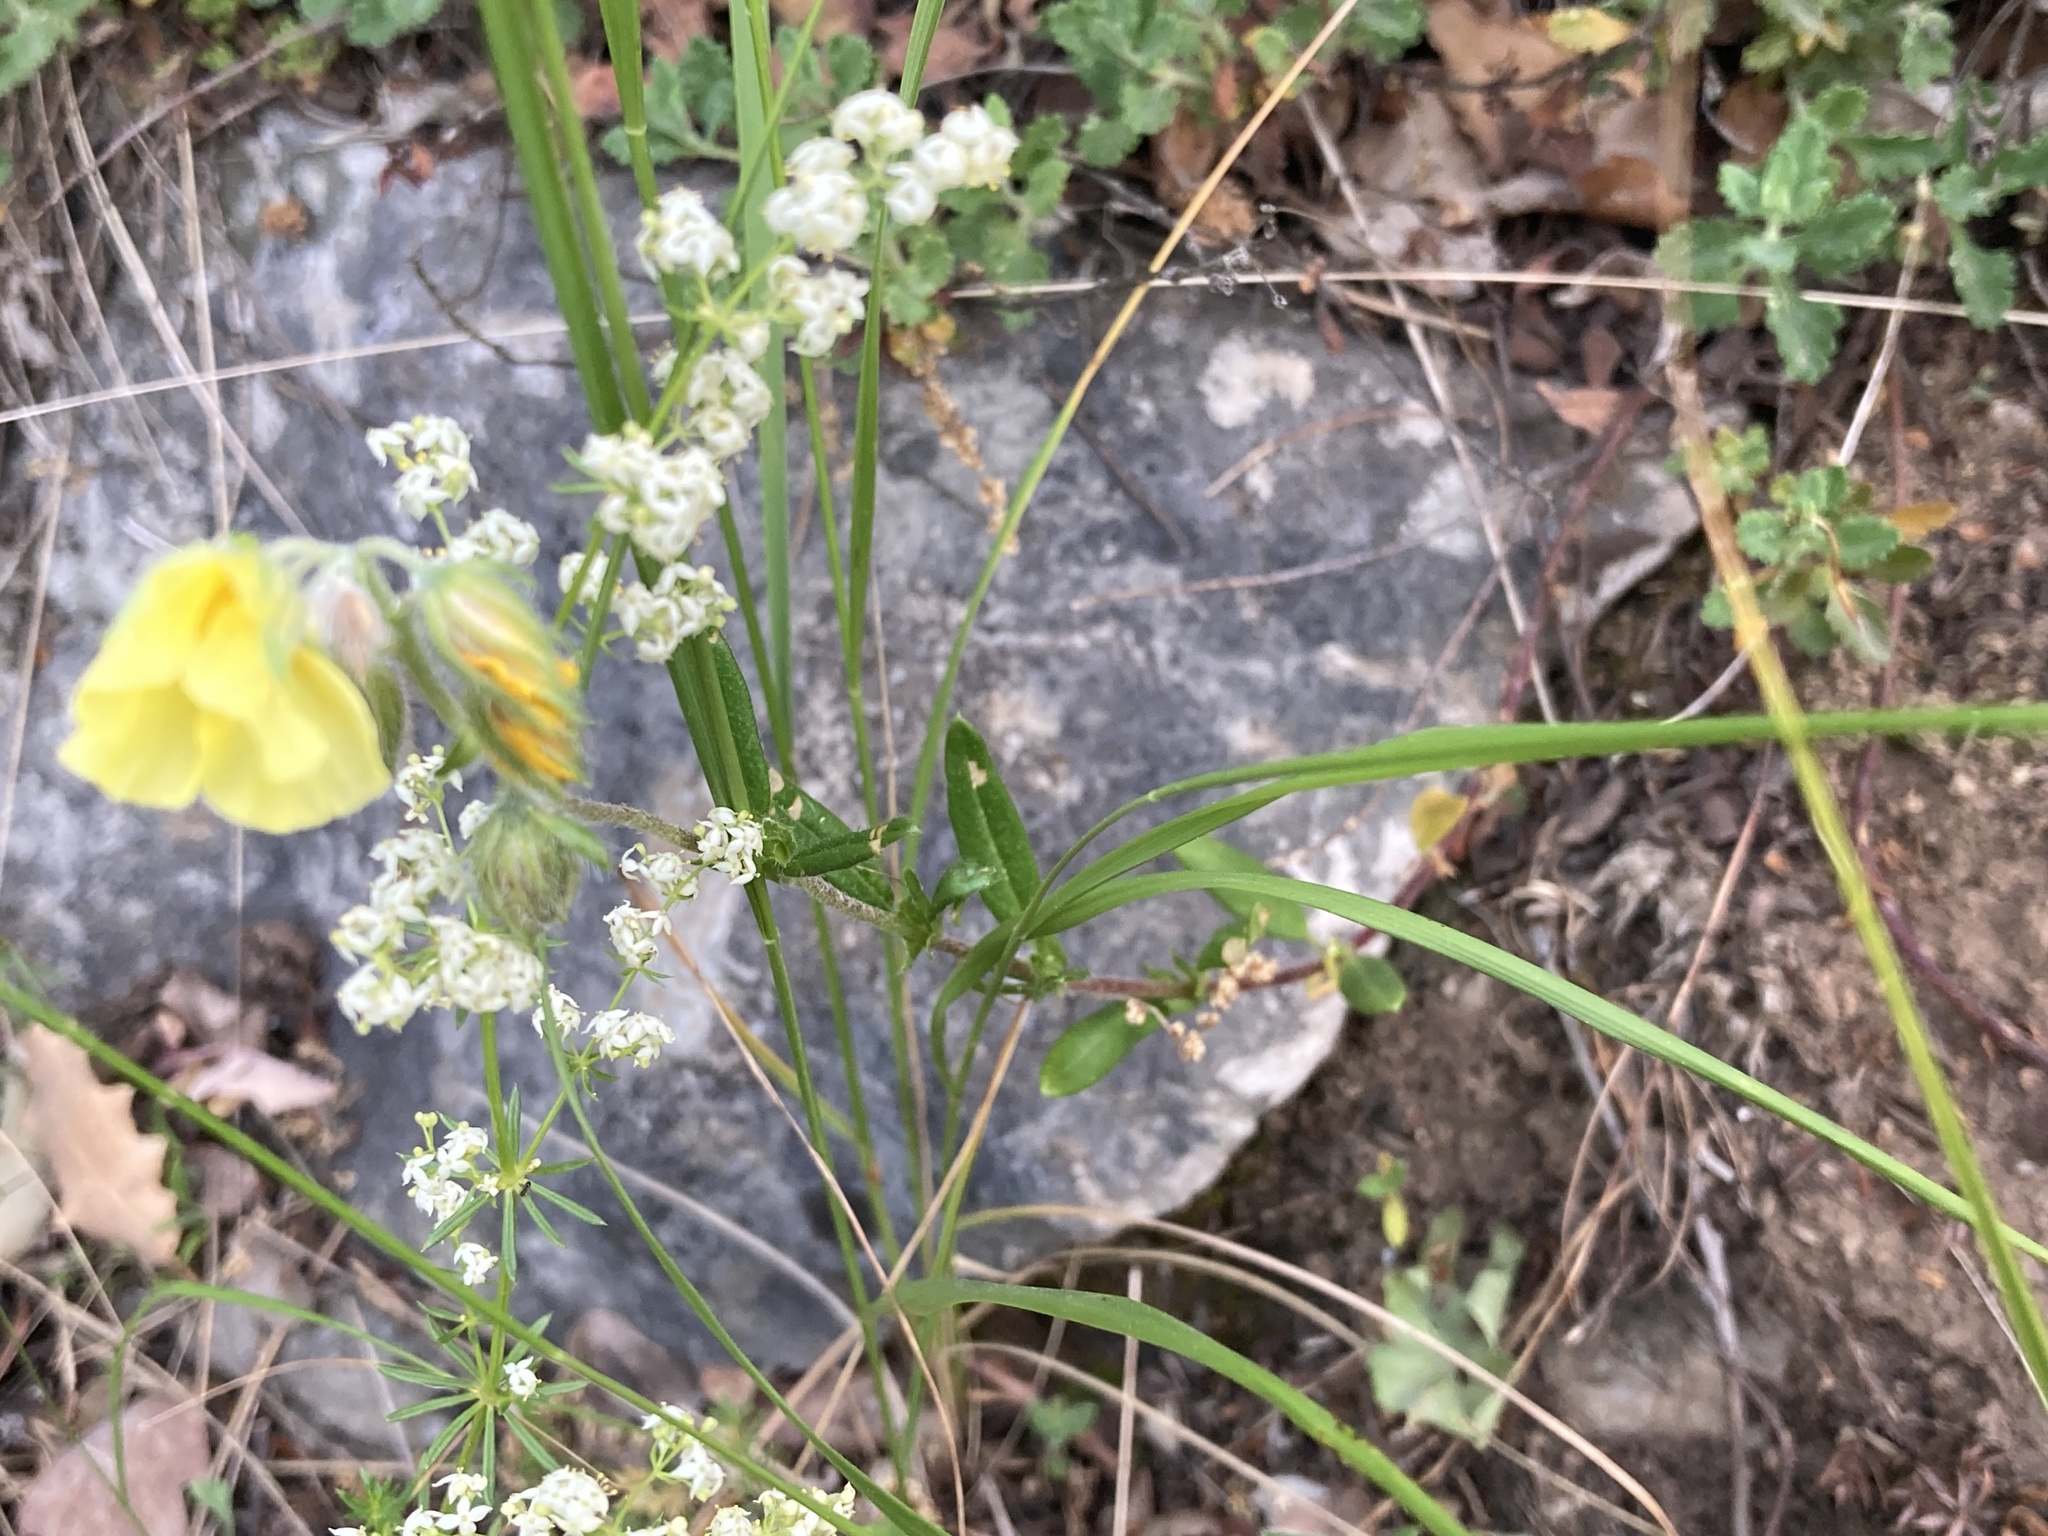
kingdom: Plantae
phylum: Tracheophyta
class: Magnoliopsida
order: Malvales
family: Cistaceae
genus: Helianthemum
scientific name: Helianthemum salicifolium
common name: Willowleaf frostweed
